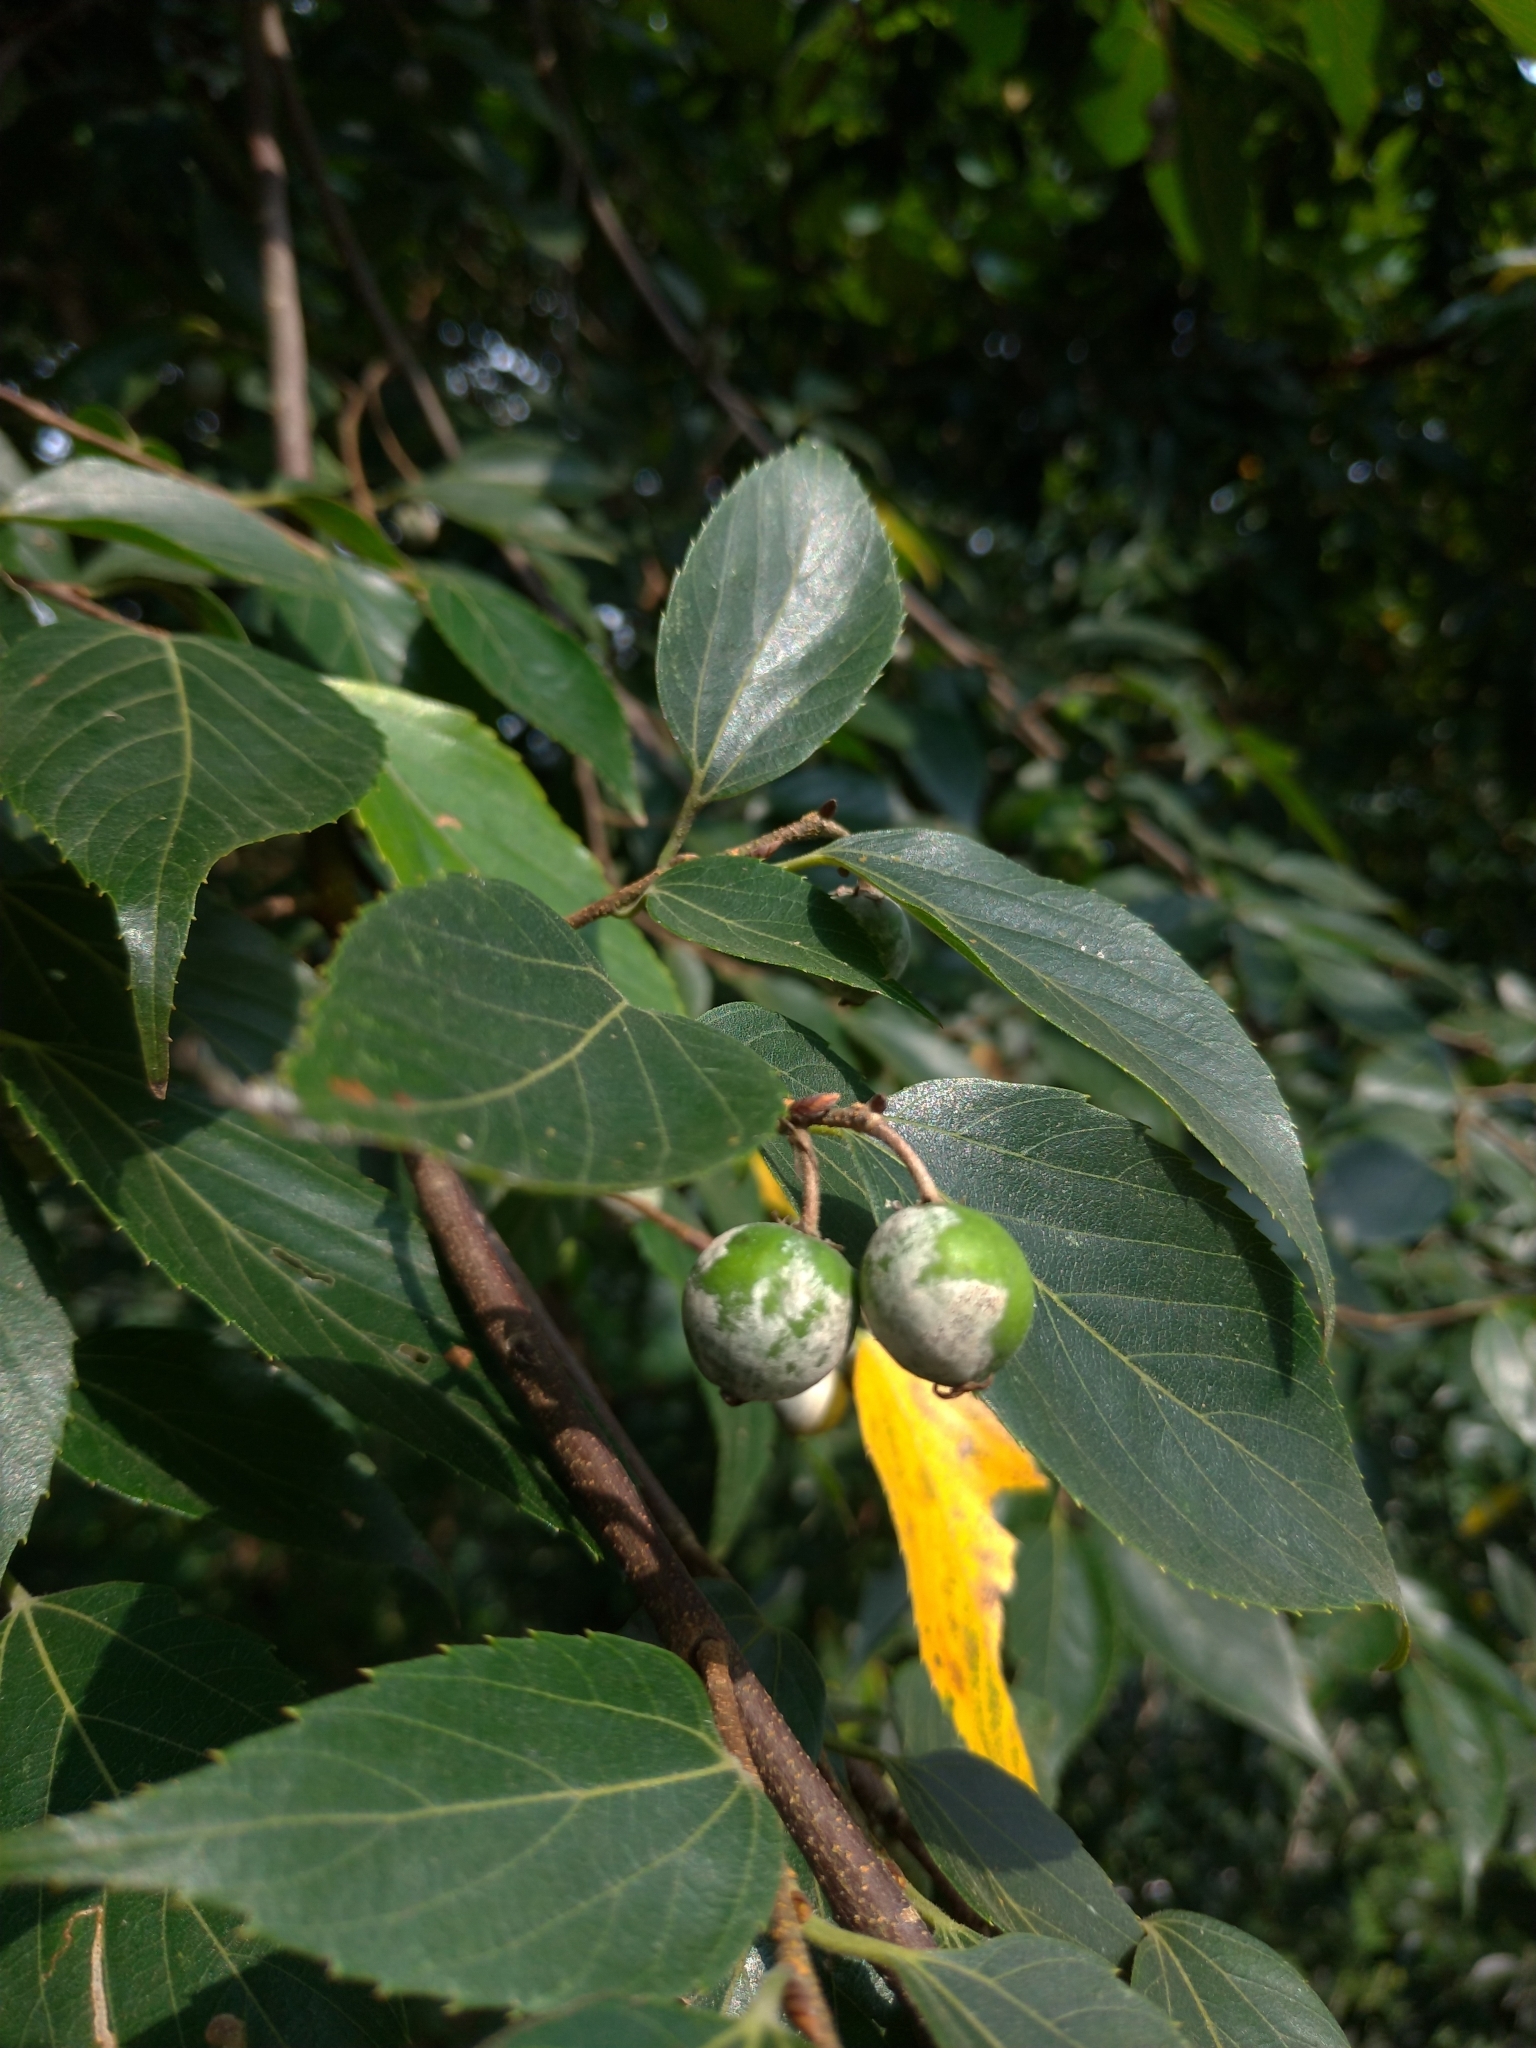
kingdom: Plantae
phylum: Tracheophyta
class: Magnoliopsida
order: Rosales
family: Cannabaceae
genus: Celtis
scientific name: Celtis sinensis
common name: Chinese hackberry
